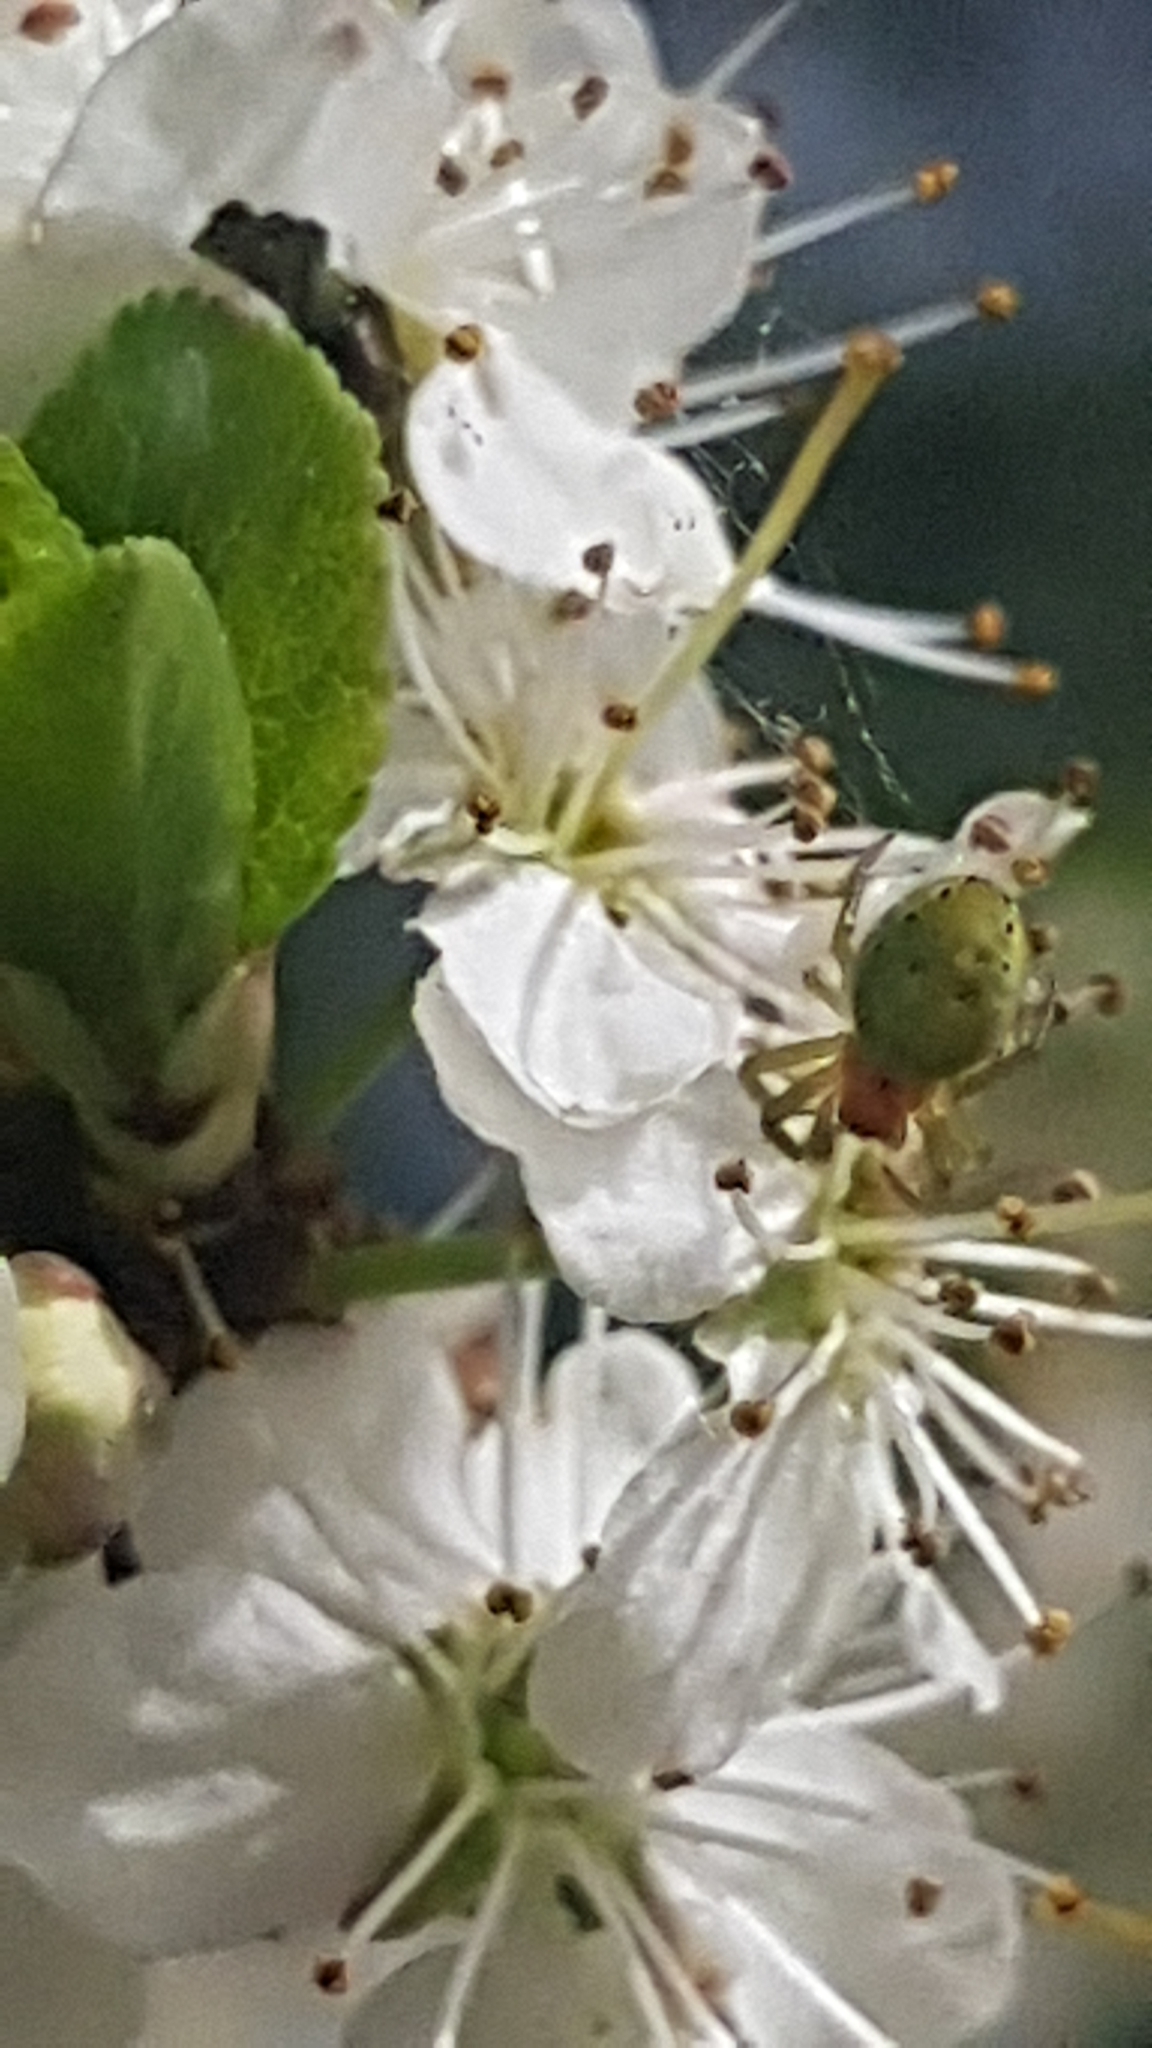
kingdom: Animalia
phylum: Arthropoda
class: Arachnida
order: Araneae
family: Araneidae
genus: Araniella
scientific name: Araniella
